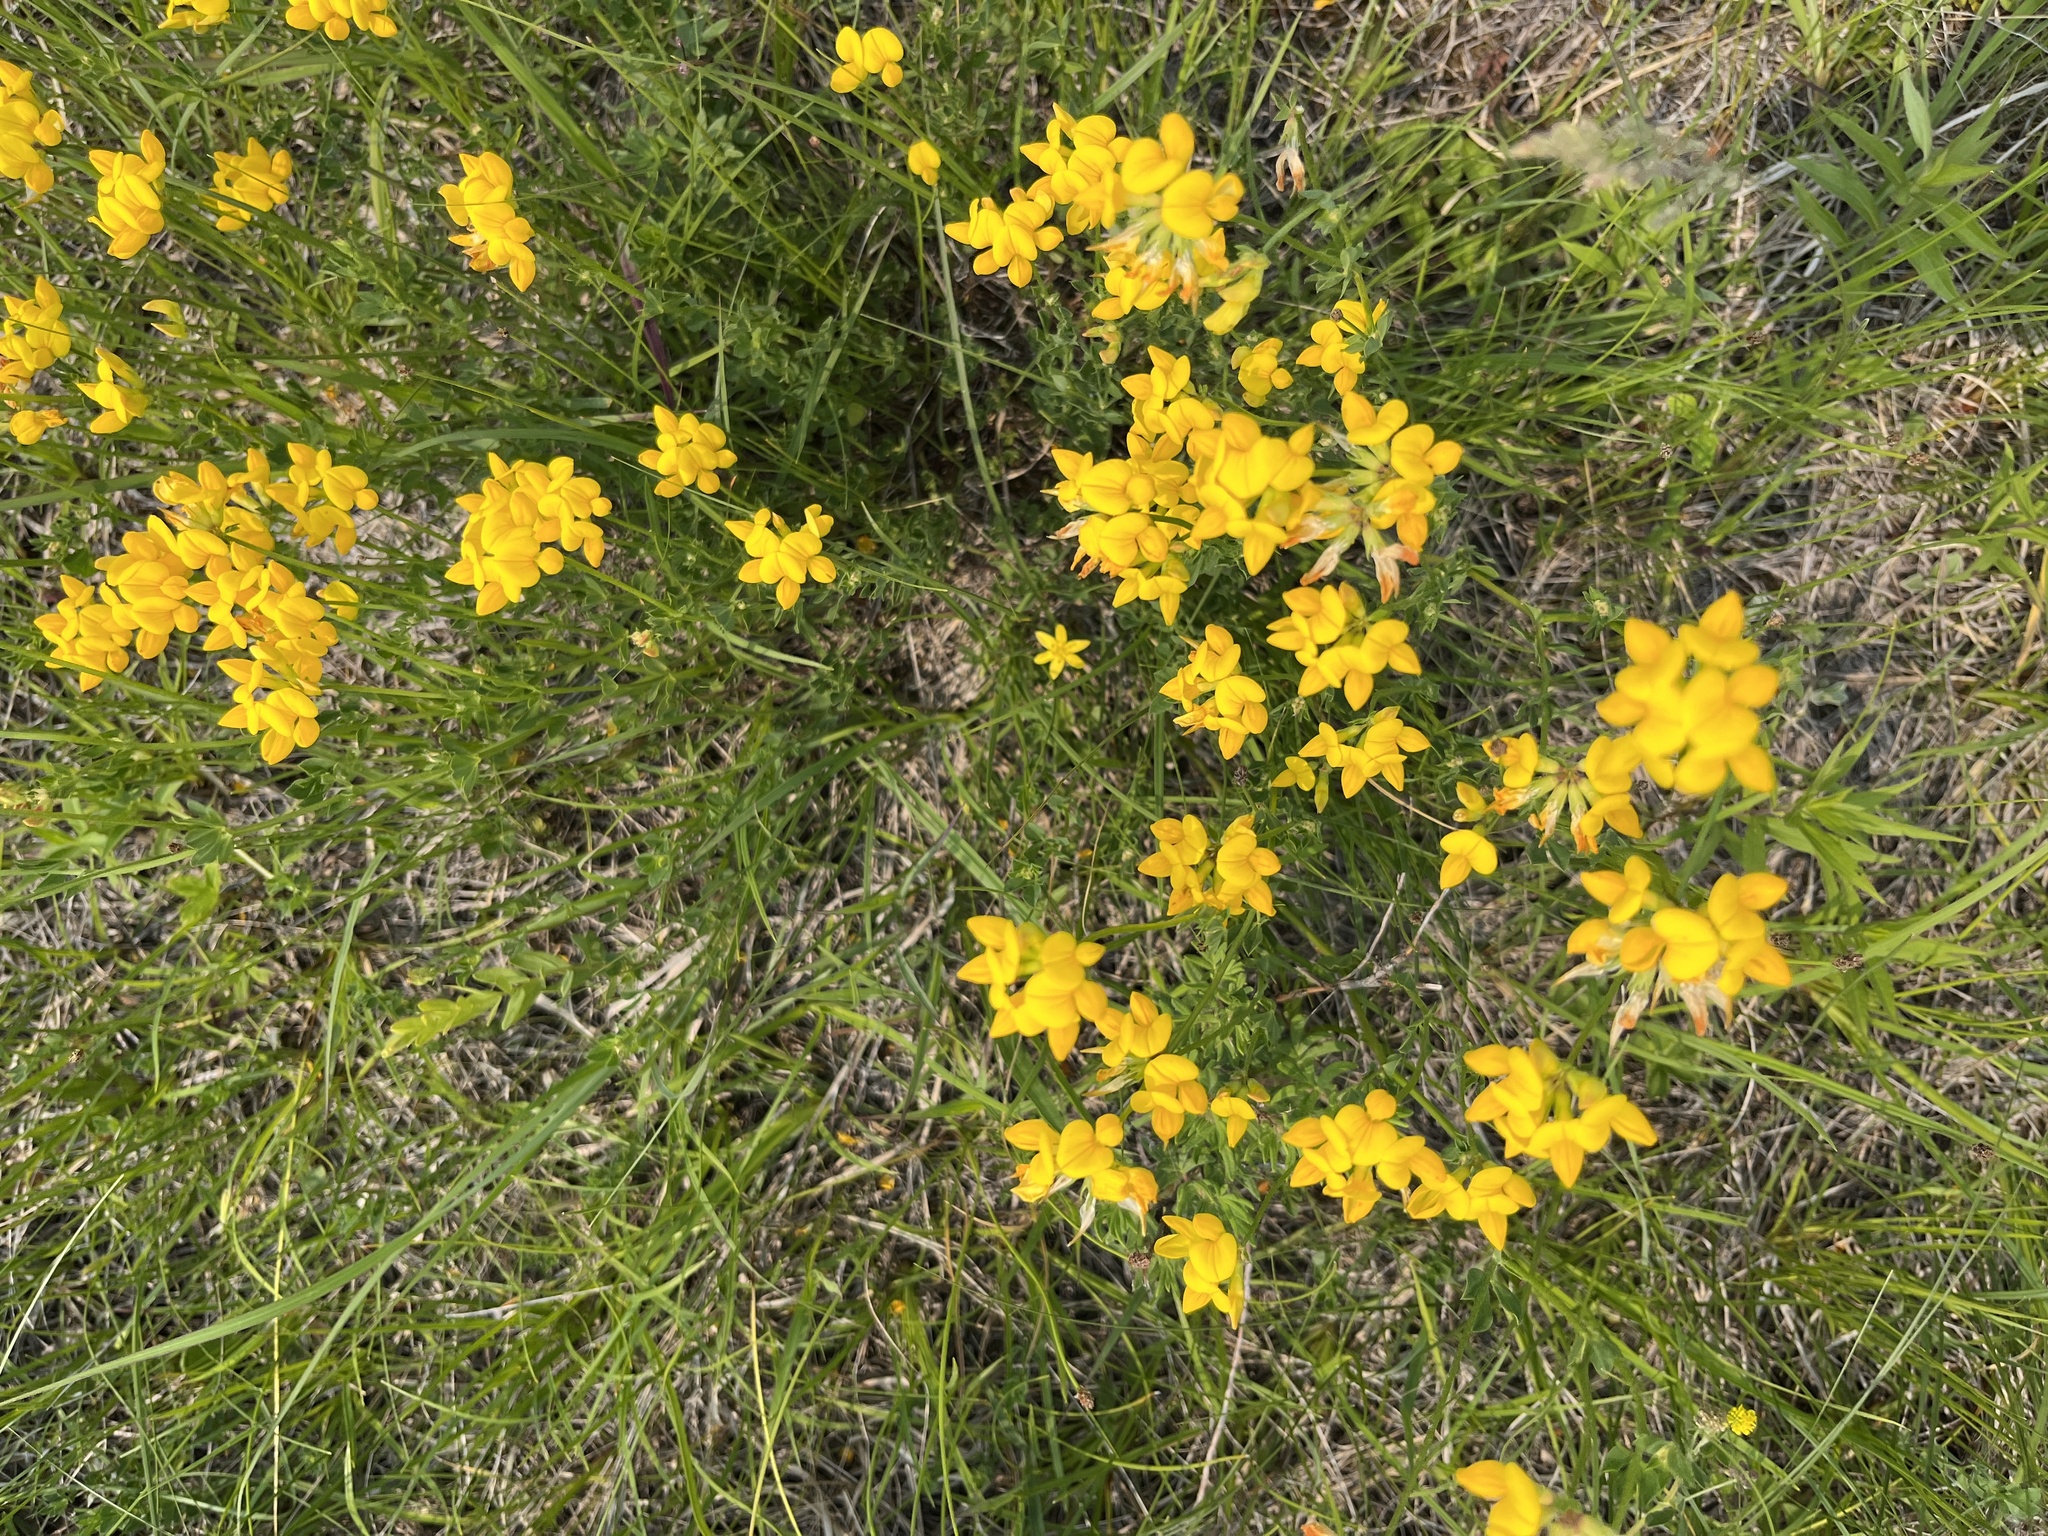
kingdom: Plantae
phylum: Tracheophyta
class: Magnoliopsida
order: Fabales
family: Fabaceae
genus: Lotus
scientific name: Lotus corniculatus
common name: Common bird's-foot-trefoil
